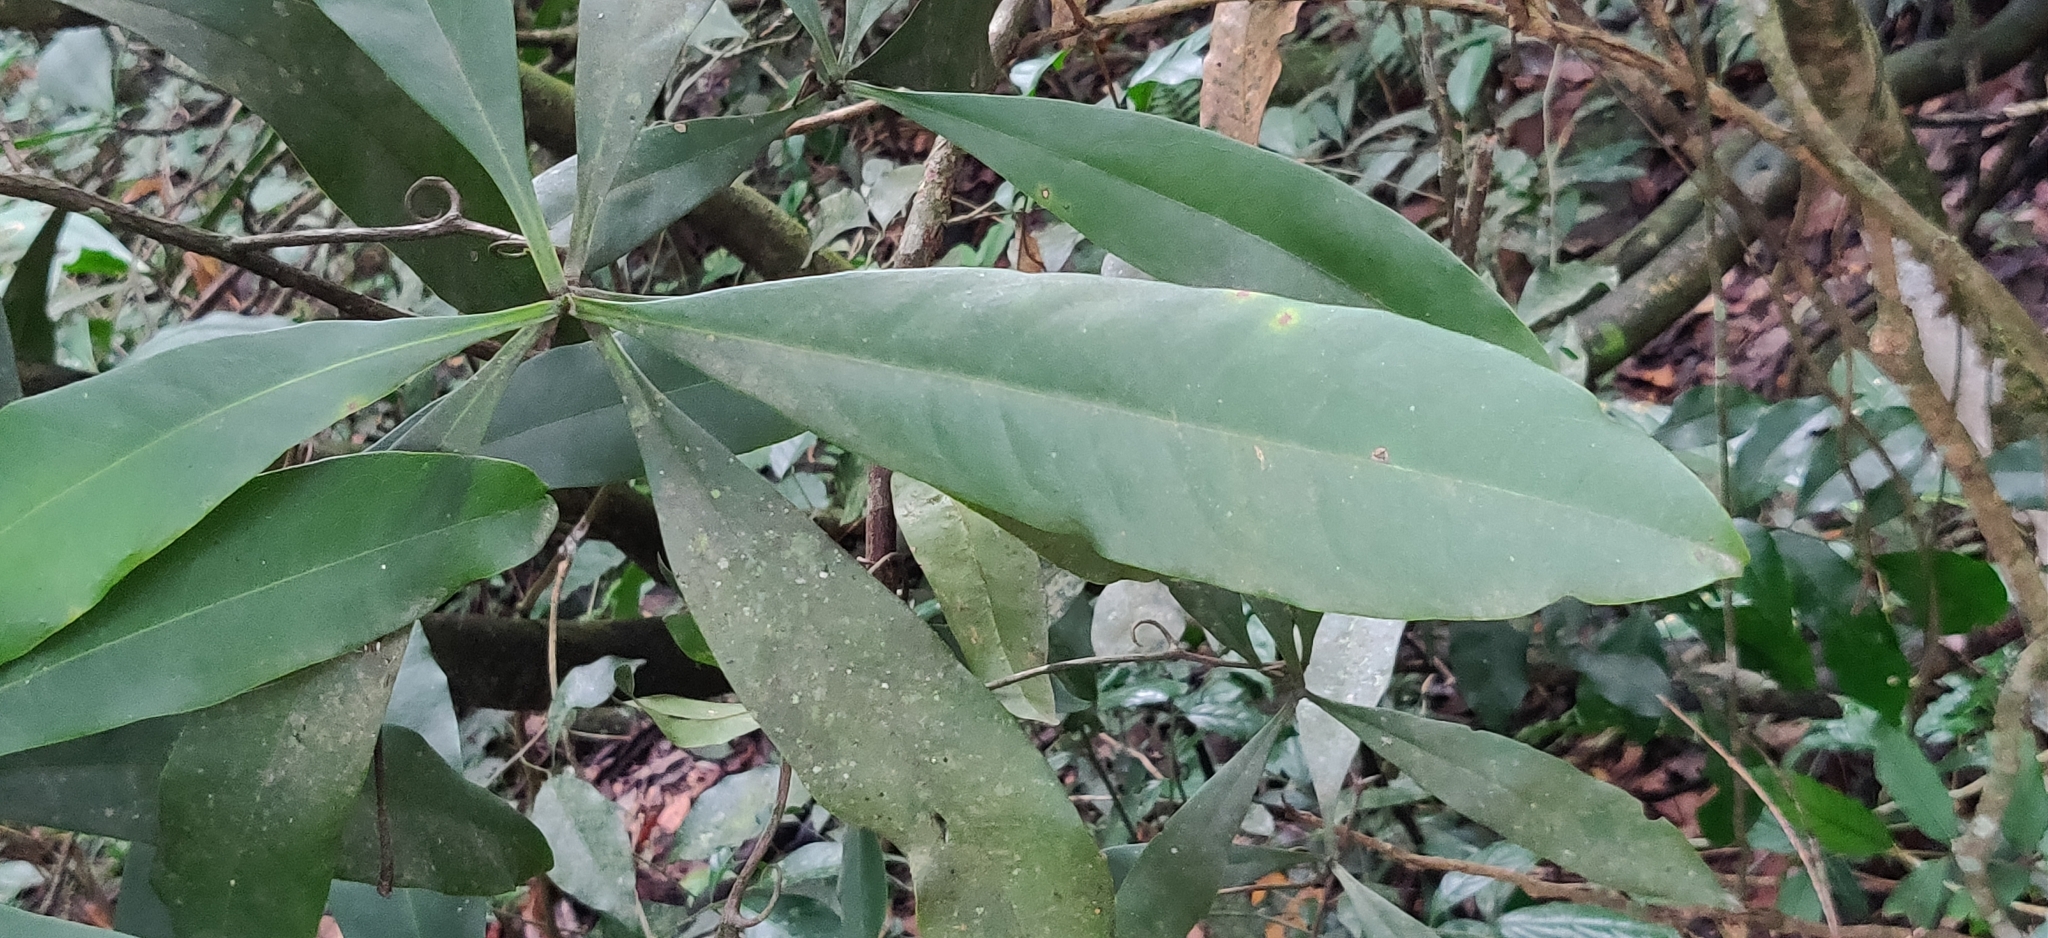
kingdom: Plantae
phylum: Tracheophyta
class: Magnoliopsida
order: Caryophyllales
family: Ancistrocladaceae
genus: Ancistrocladus
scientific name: Ancistrocladus heyneanus
